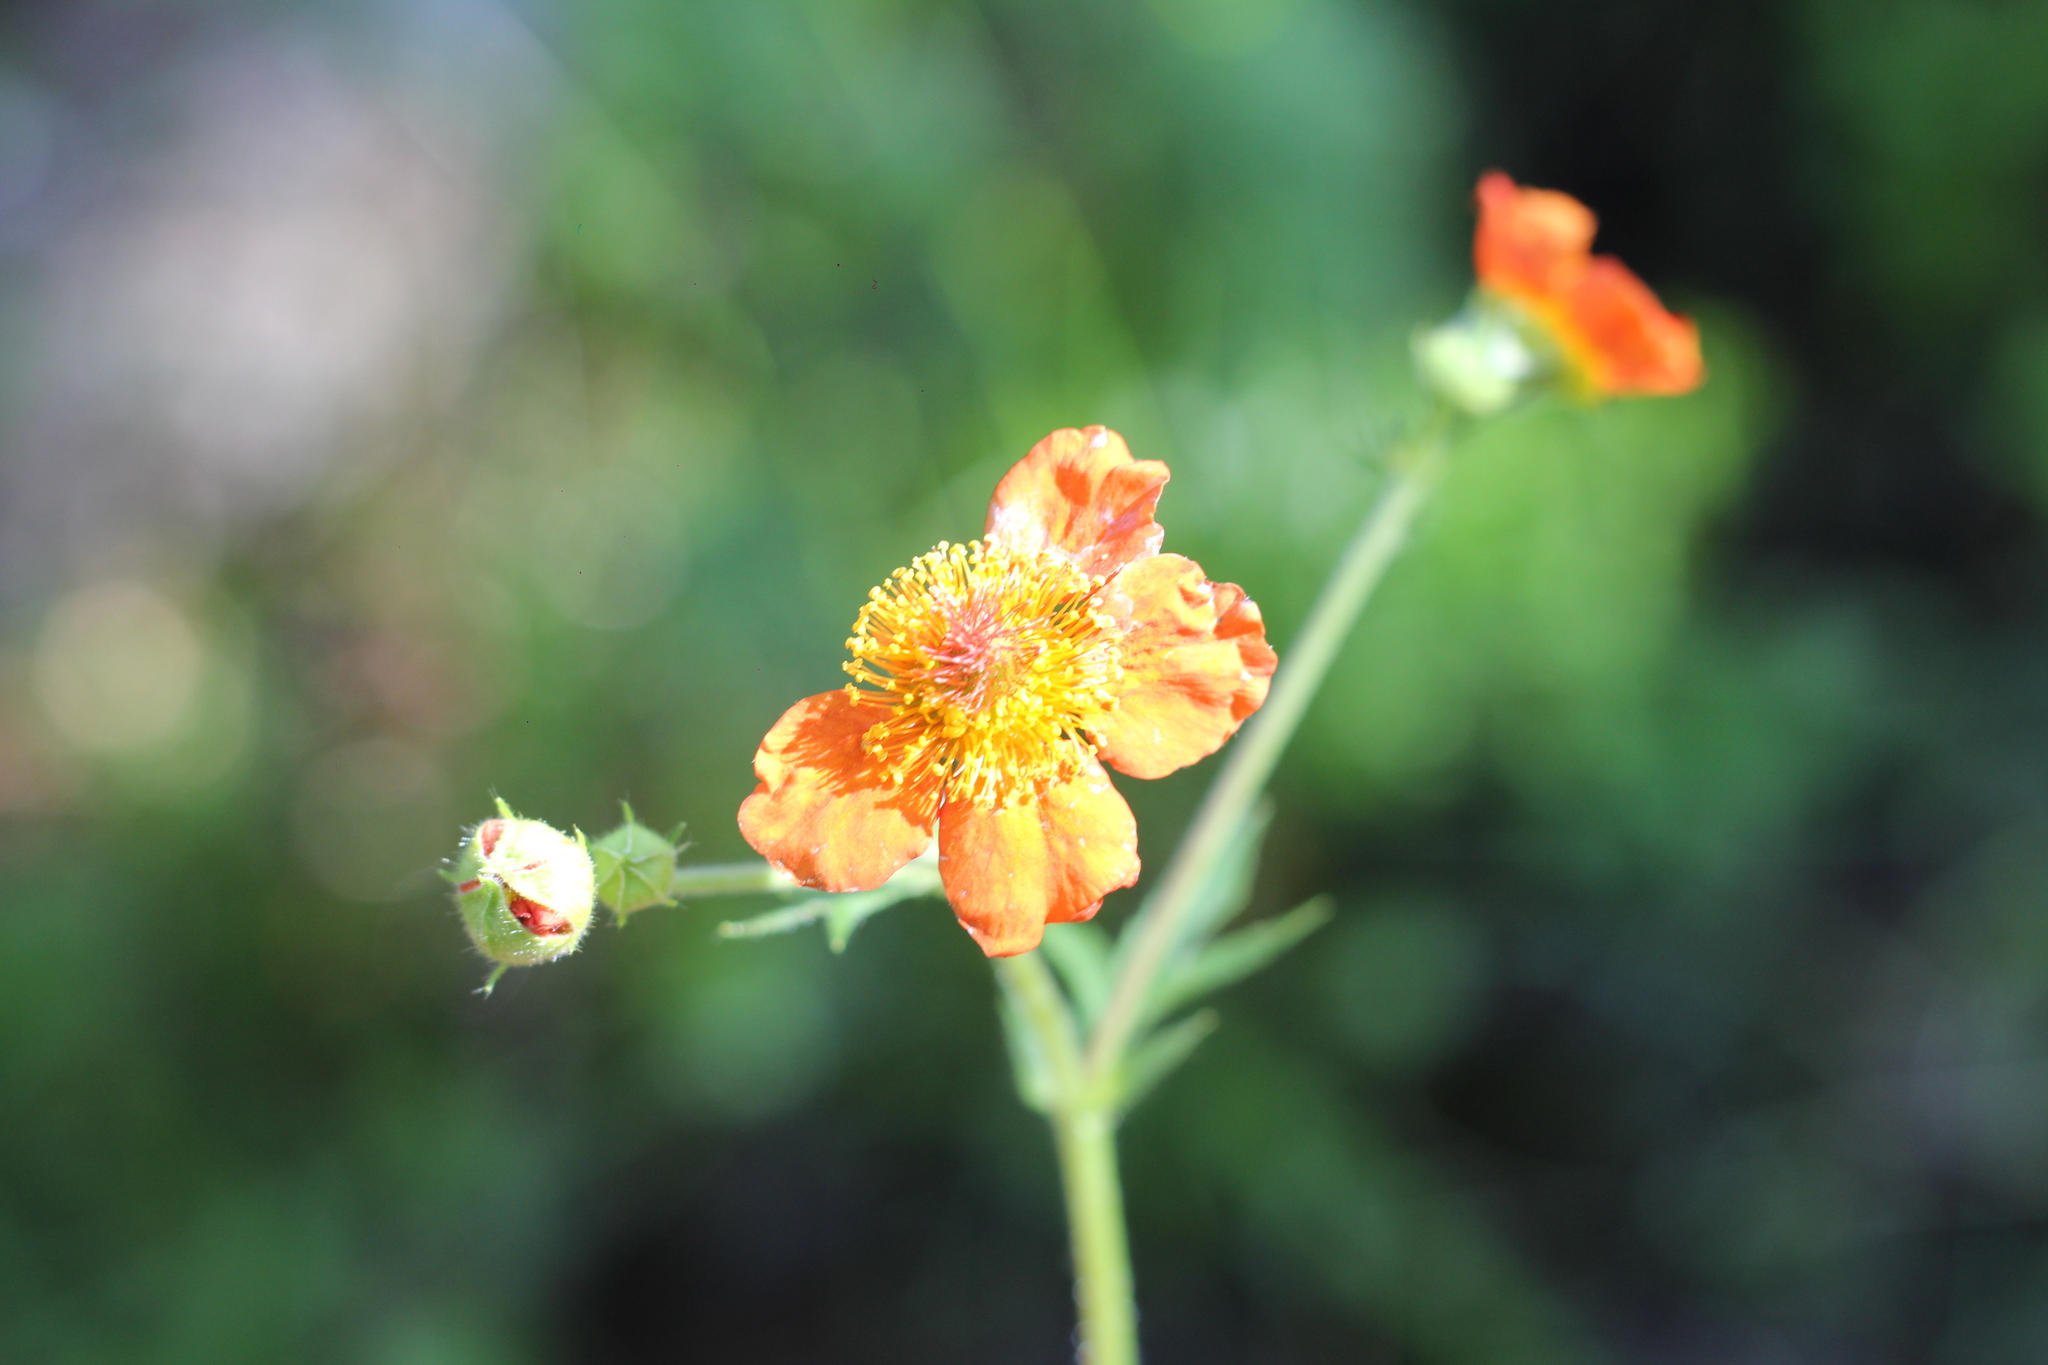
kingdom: Plantae
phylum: Tracheophyta
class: Magnoliopsida
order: Rosales
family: Rosaceae
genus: Geum
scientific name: Geum quellyon
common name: Scarlet avens
